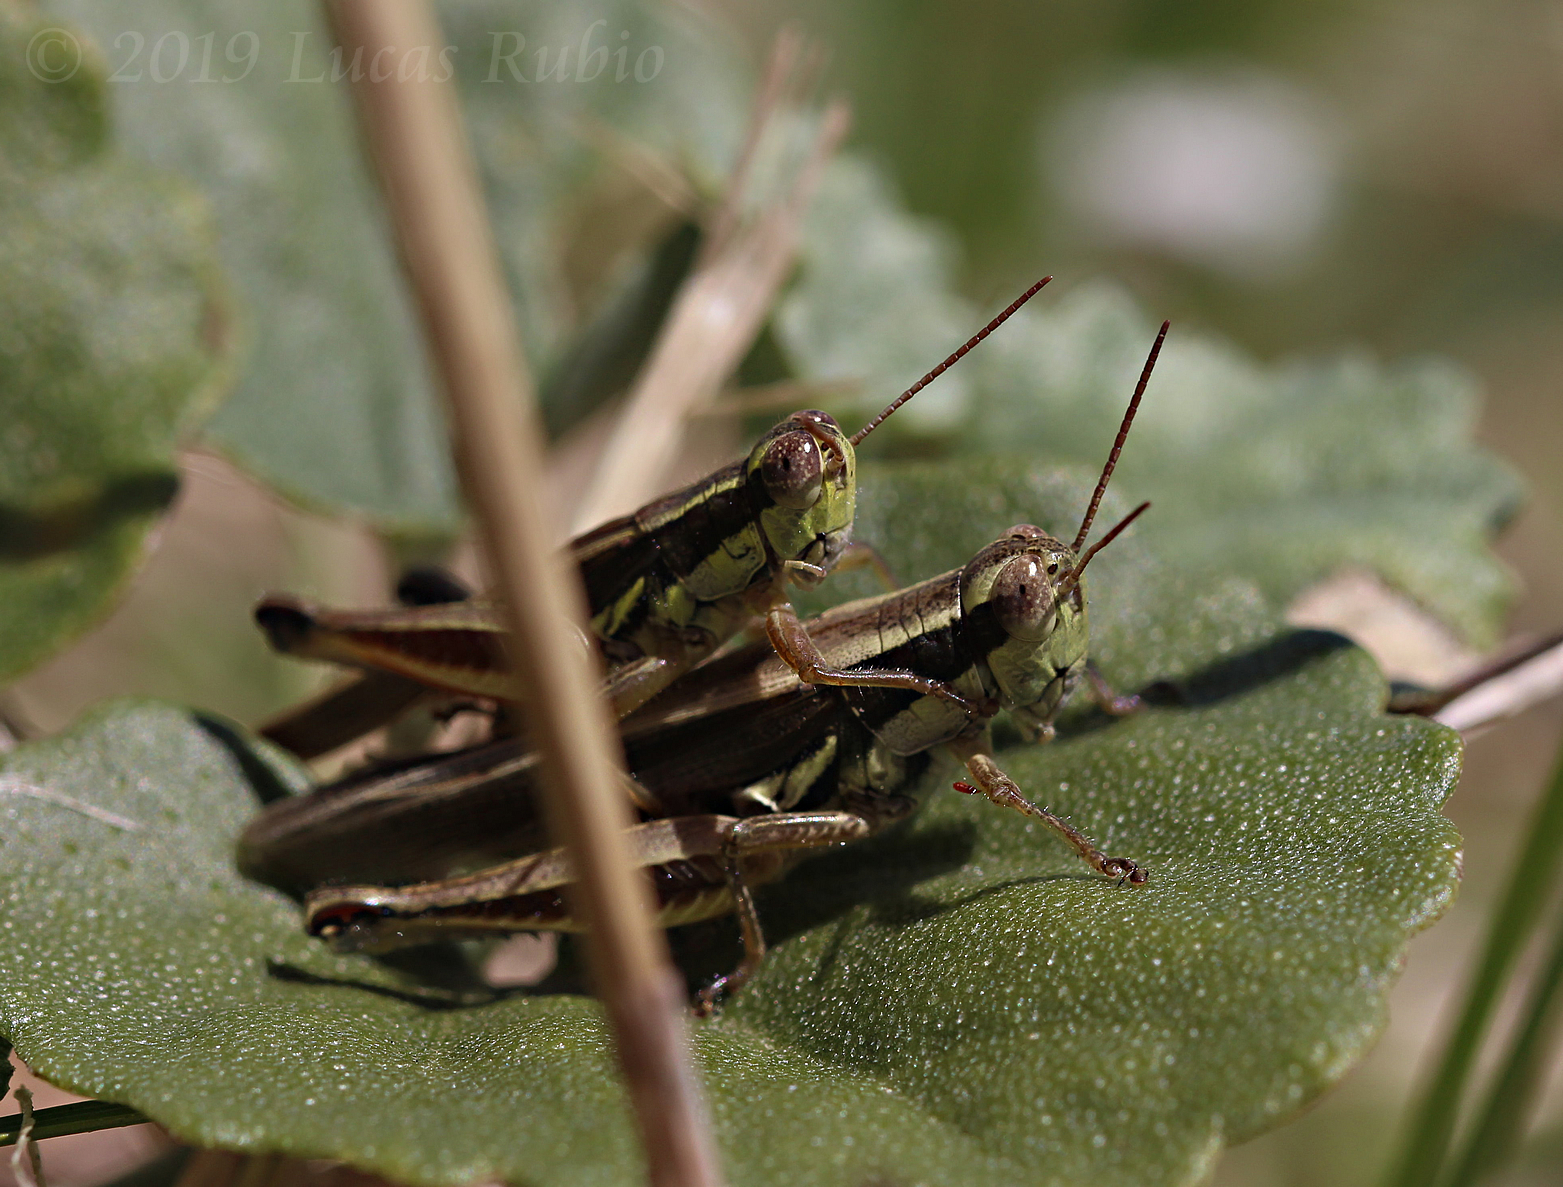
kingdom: Animalia
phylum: Arthropoda
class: Insecta
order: Orthoptera
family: Acrididae
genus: Dichroplus
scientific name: Dichroplus elongatus
